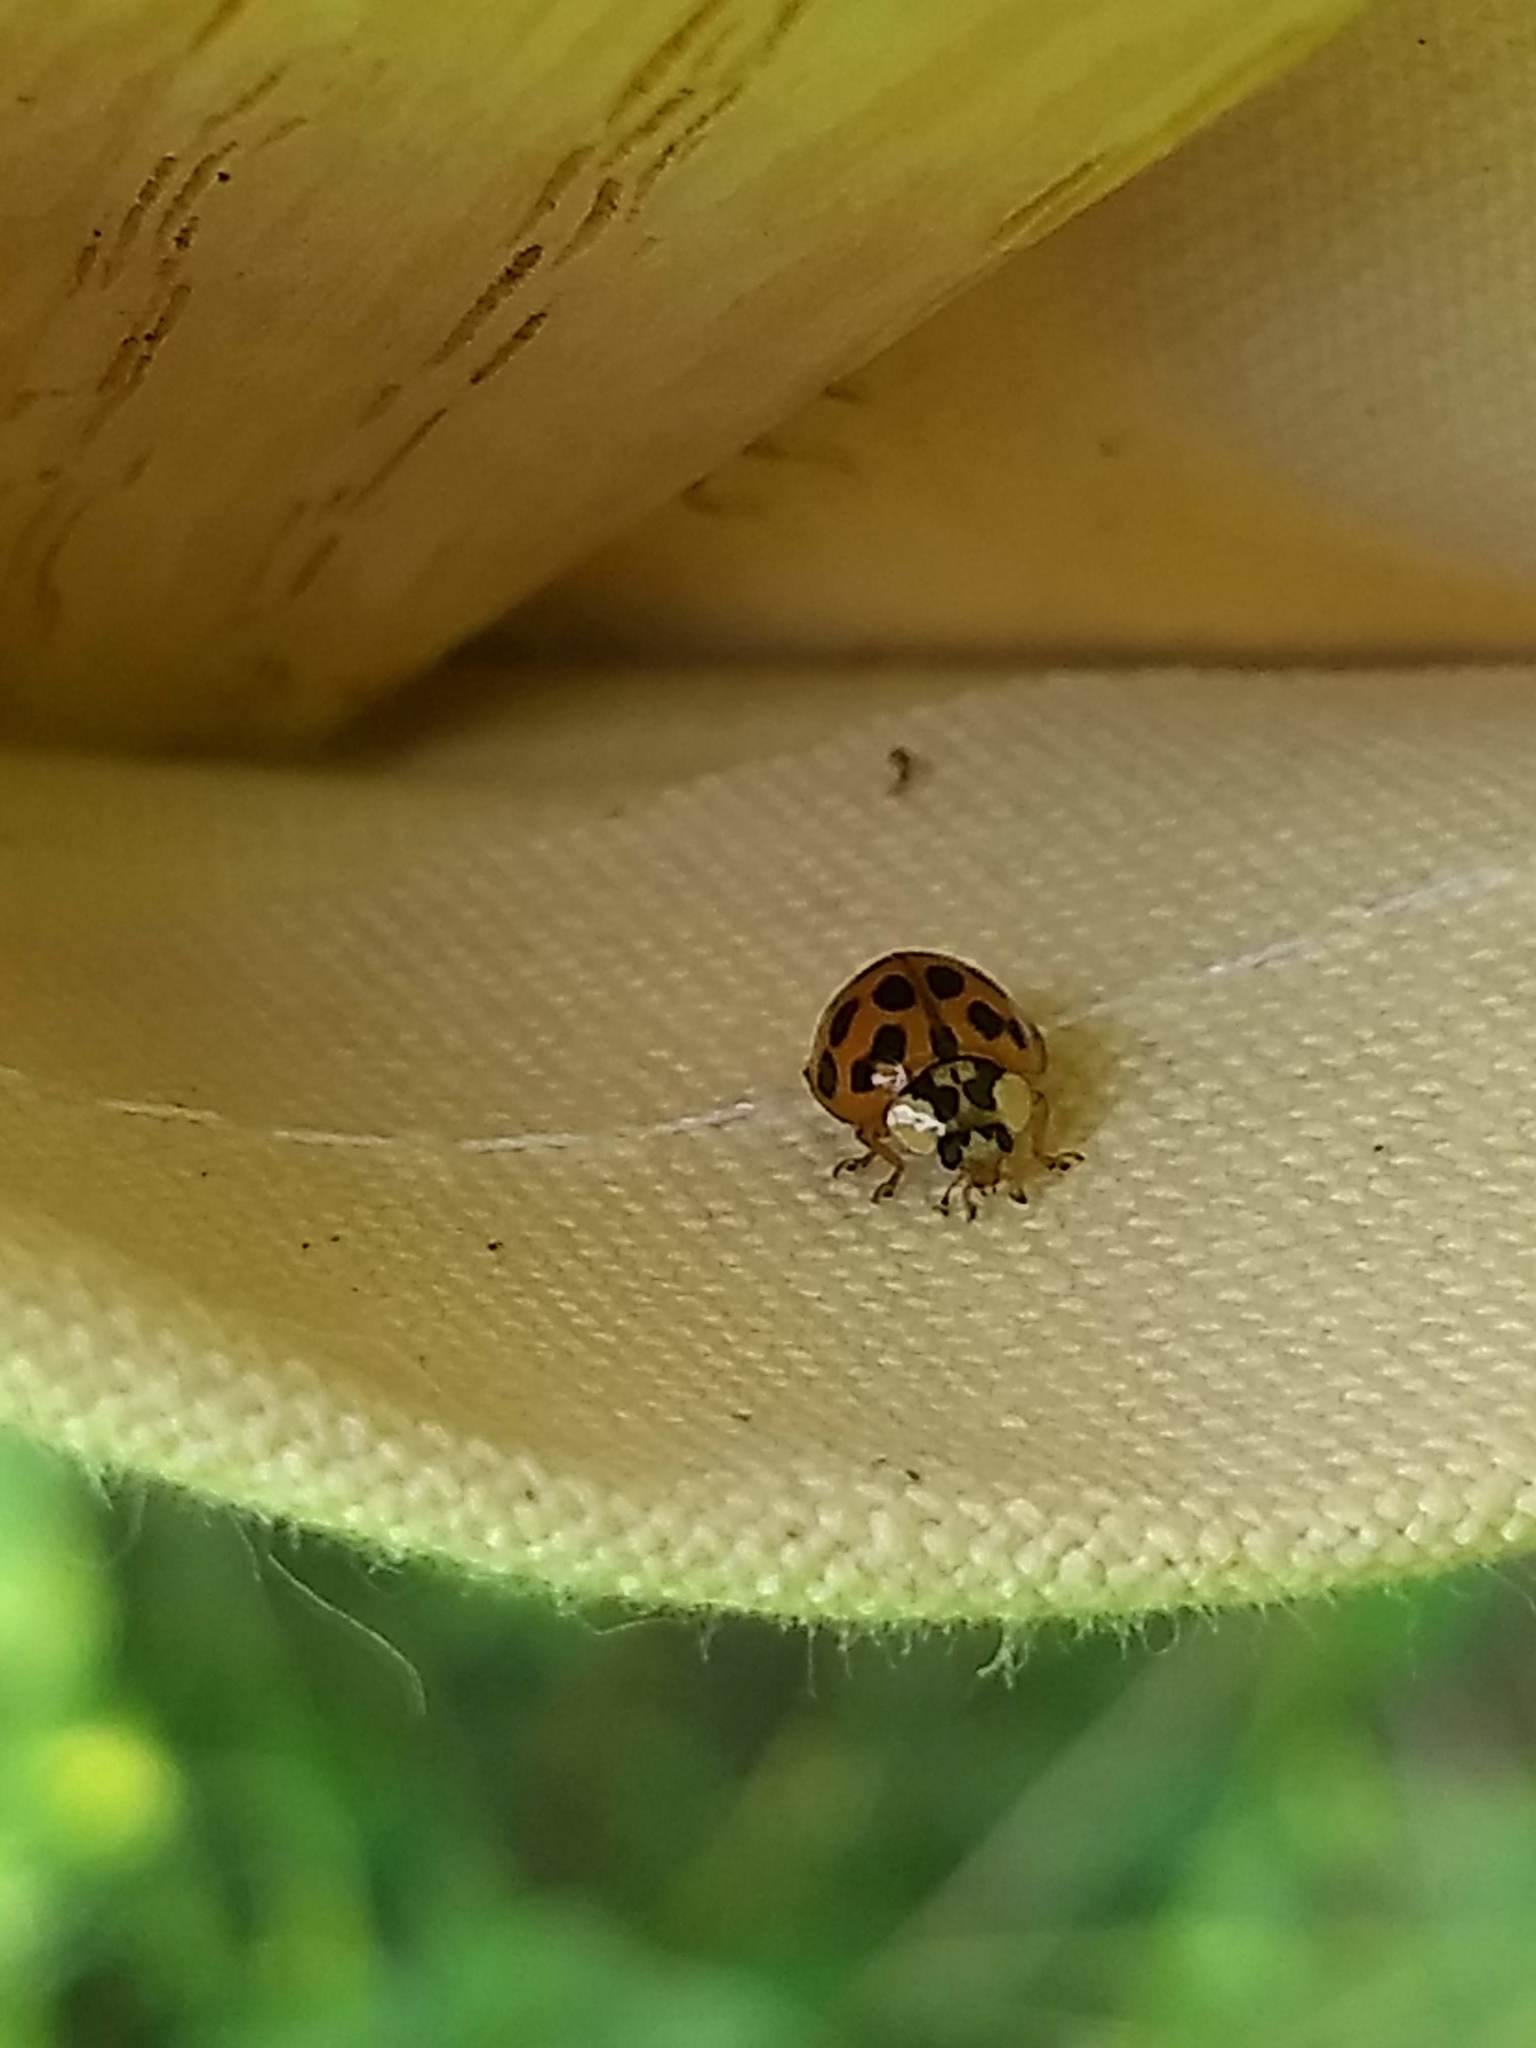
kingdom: Animalia
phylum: Arthropoda
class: Insecta
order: Coleoptera
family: Coccinellidae
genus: Harmonia
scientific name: Harmonia axyridis
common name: Harlequin ladybird
